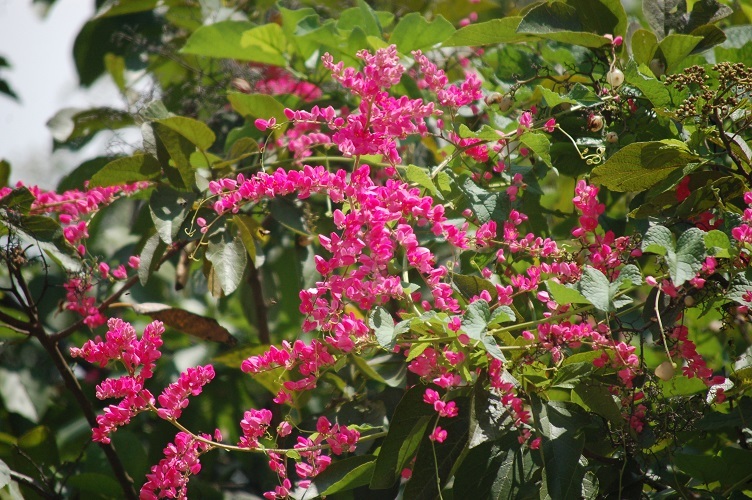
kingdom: Plantae
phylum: Tracheophyta
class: Magnoliopsida
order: Caryophyllales
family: Polygonaceae
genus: Antigonon
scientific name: Antigonon leptopus
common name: Coral vine
